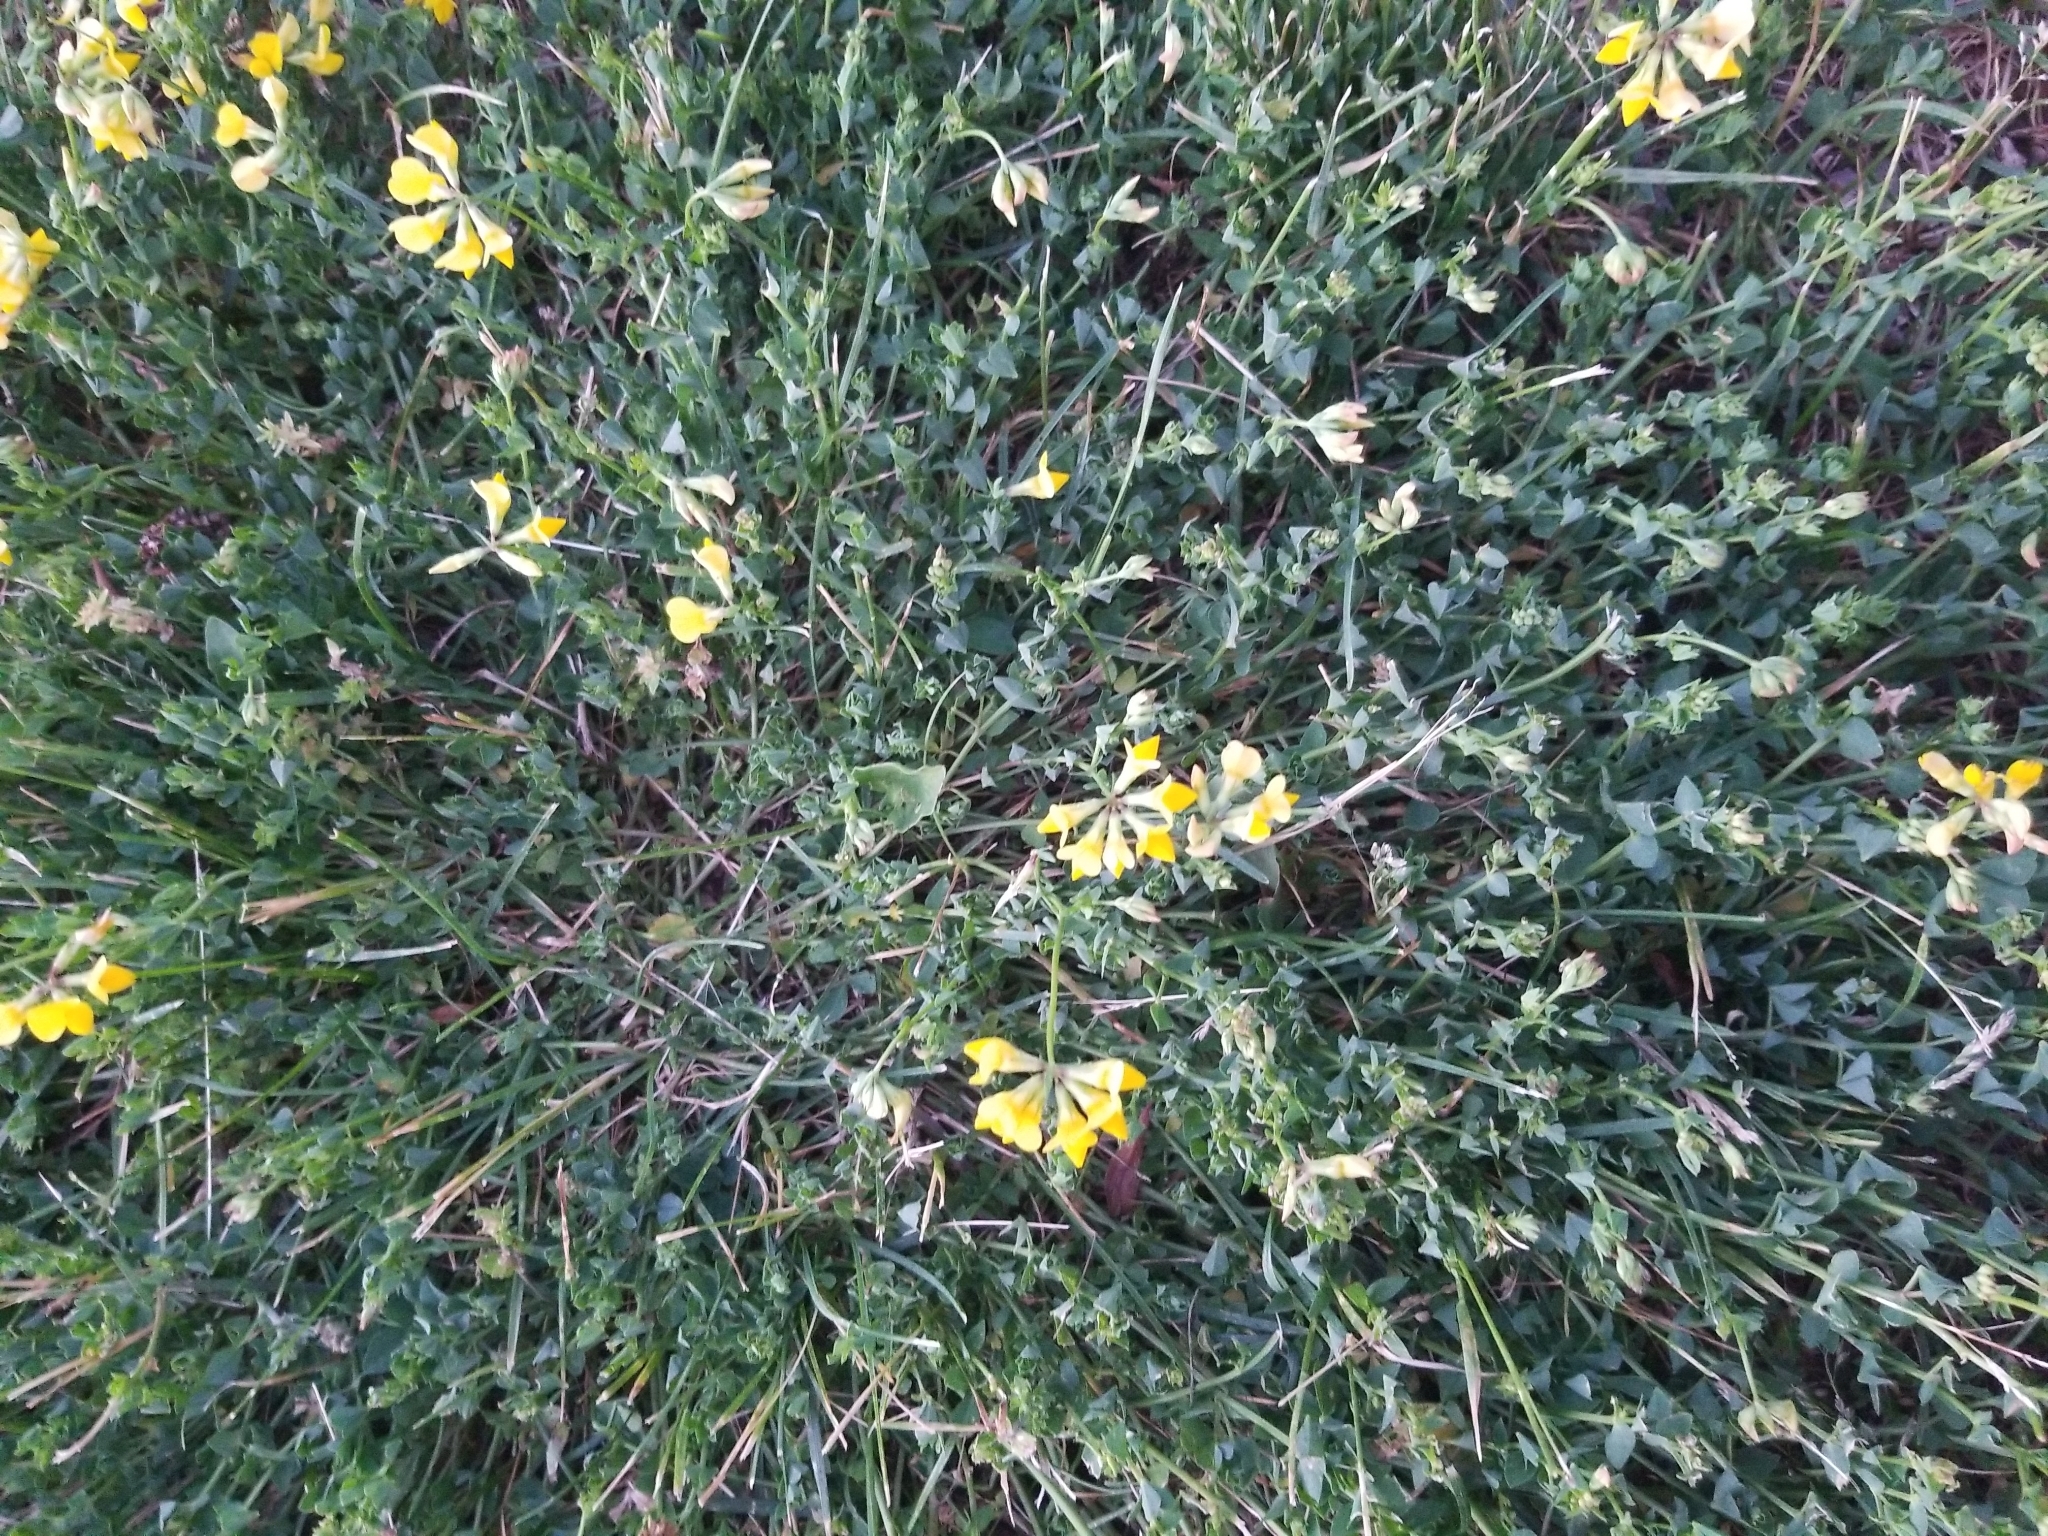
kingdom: Plantae
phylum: Tracheophyta
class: Magnoliopsida
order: Fabales
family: Fabaceae
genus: Lotus
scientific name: Lotus corniculatus
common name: Common bird's-foot-trefoil
